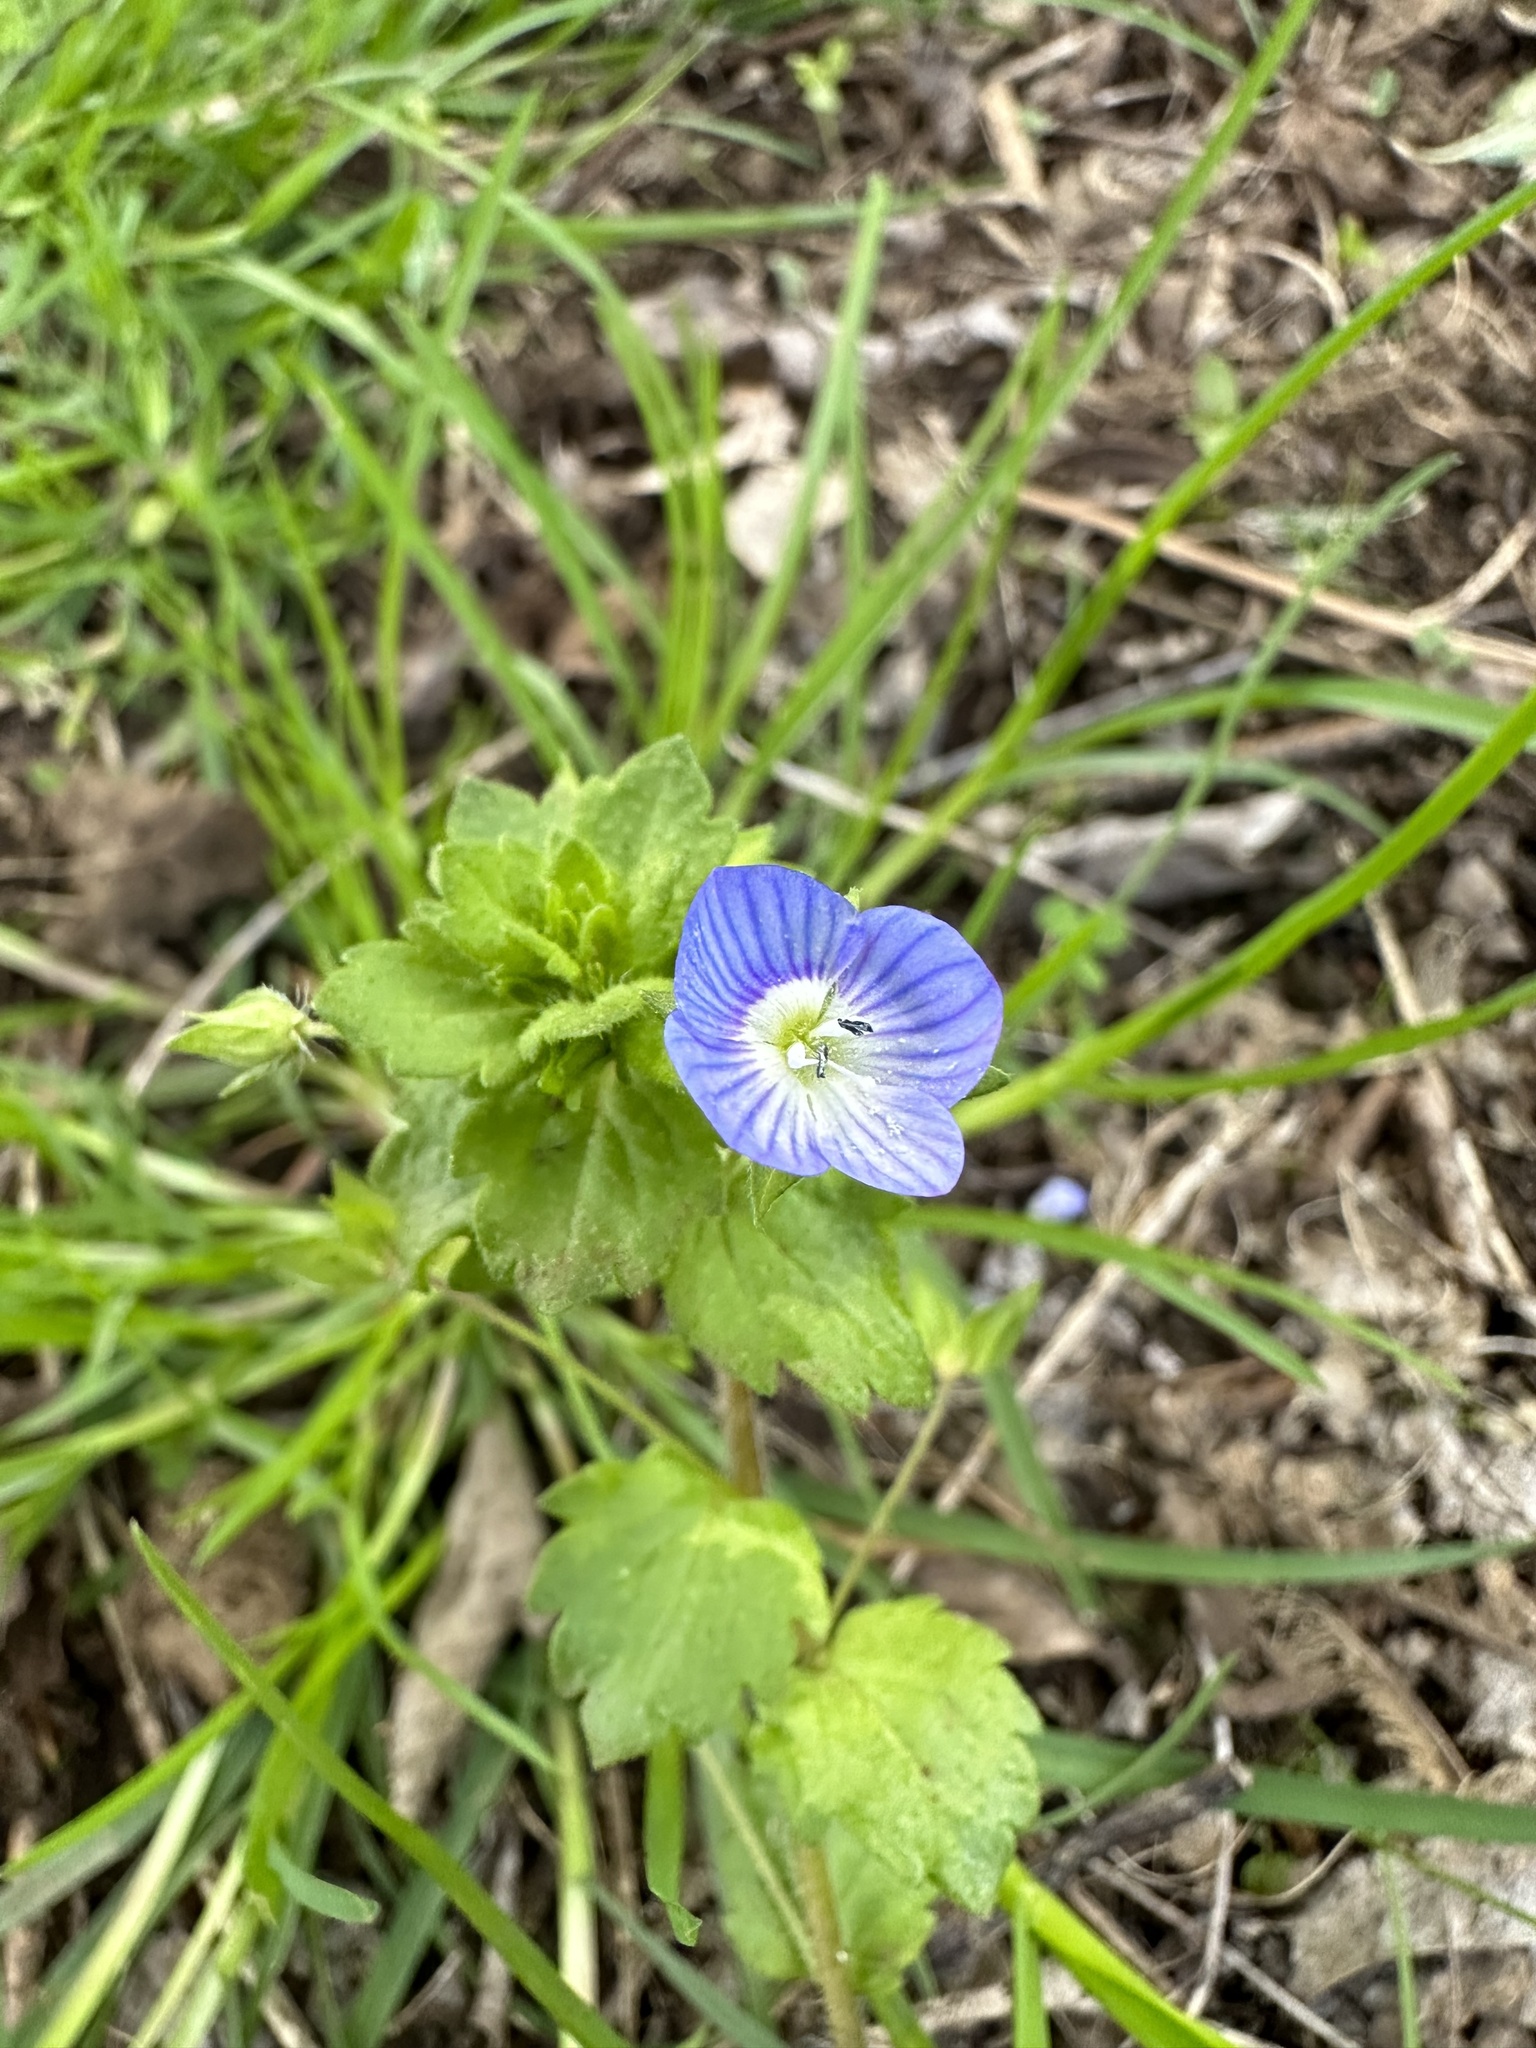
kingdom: Plantae
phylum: Tracheophyta
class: Magnoliopsida
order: Lamiales
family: Plantaginaceae
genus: Veronica
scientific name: Veronica persica
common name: Common field-speedwell
